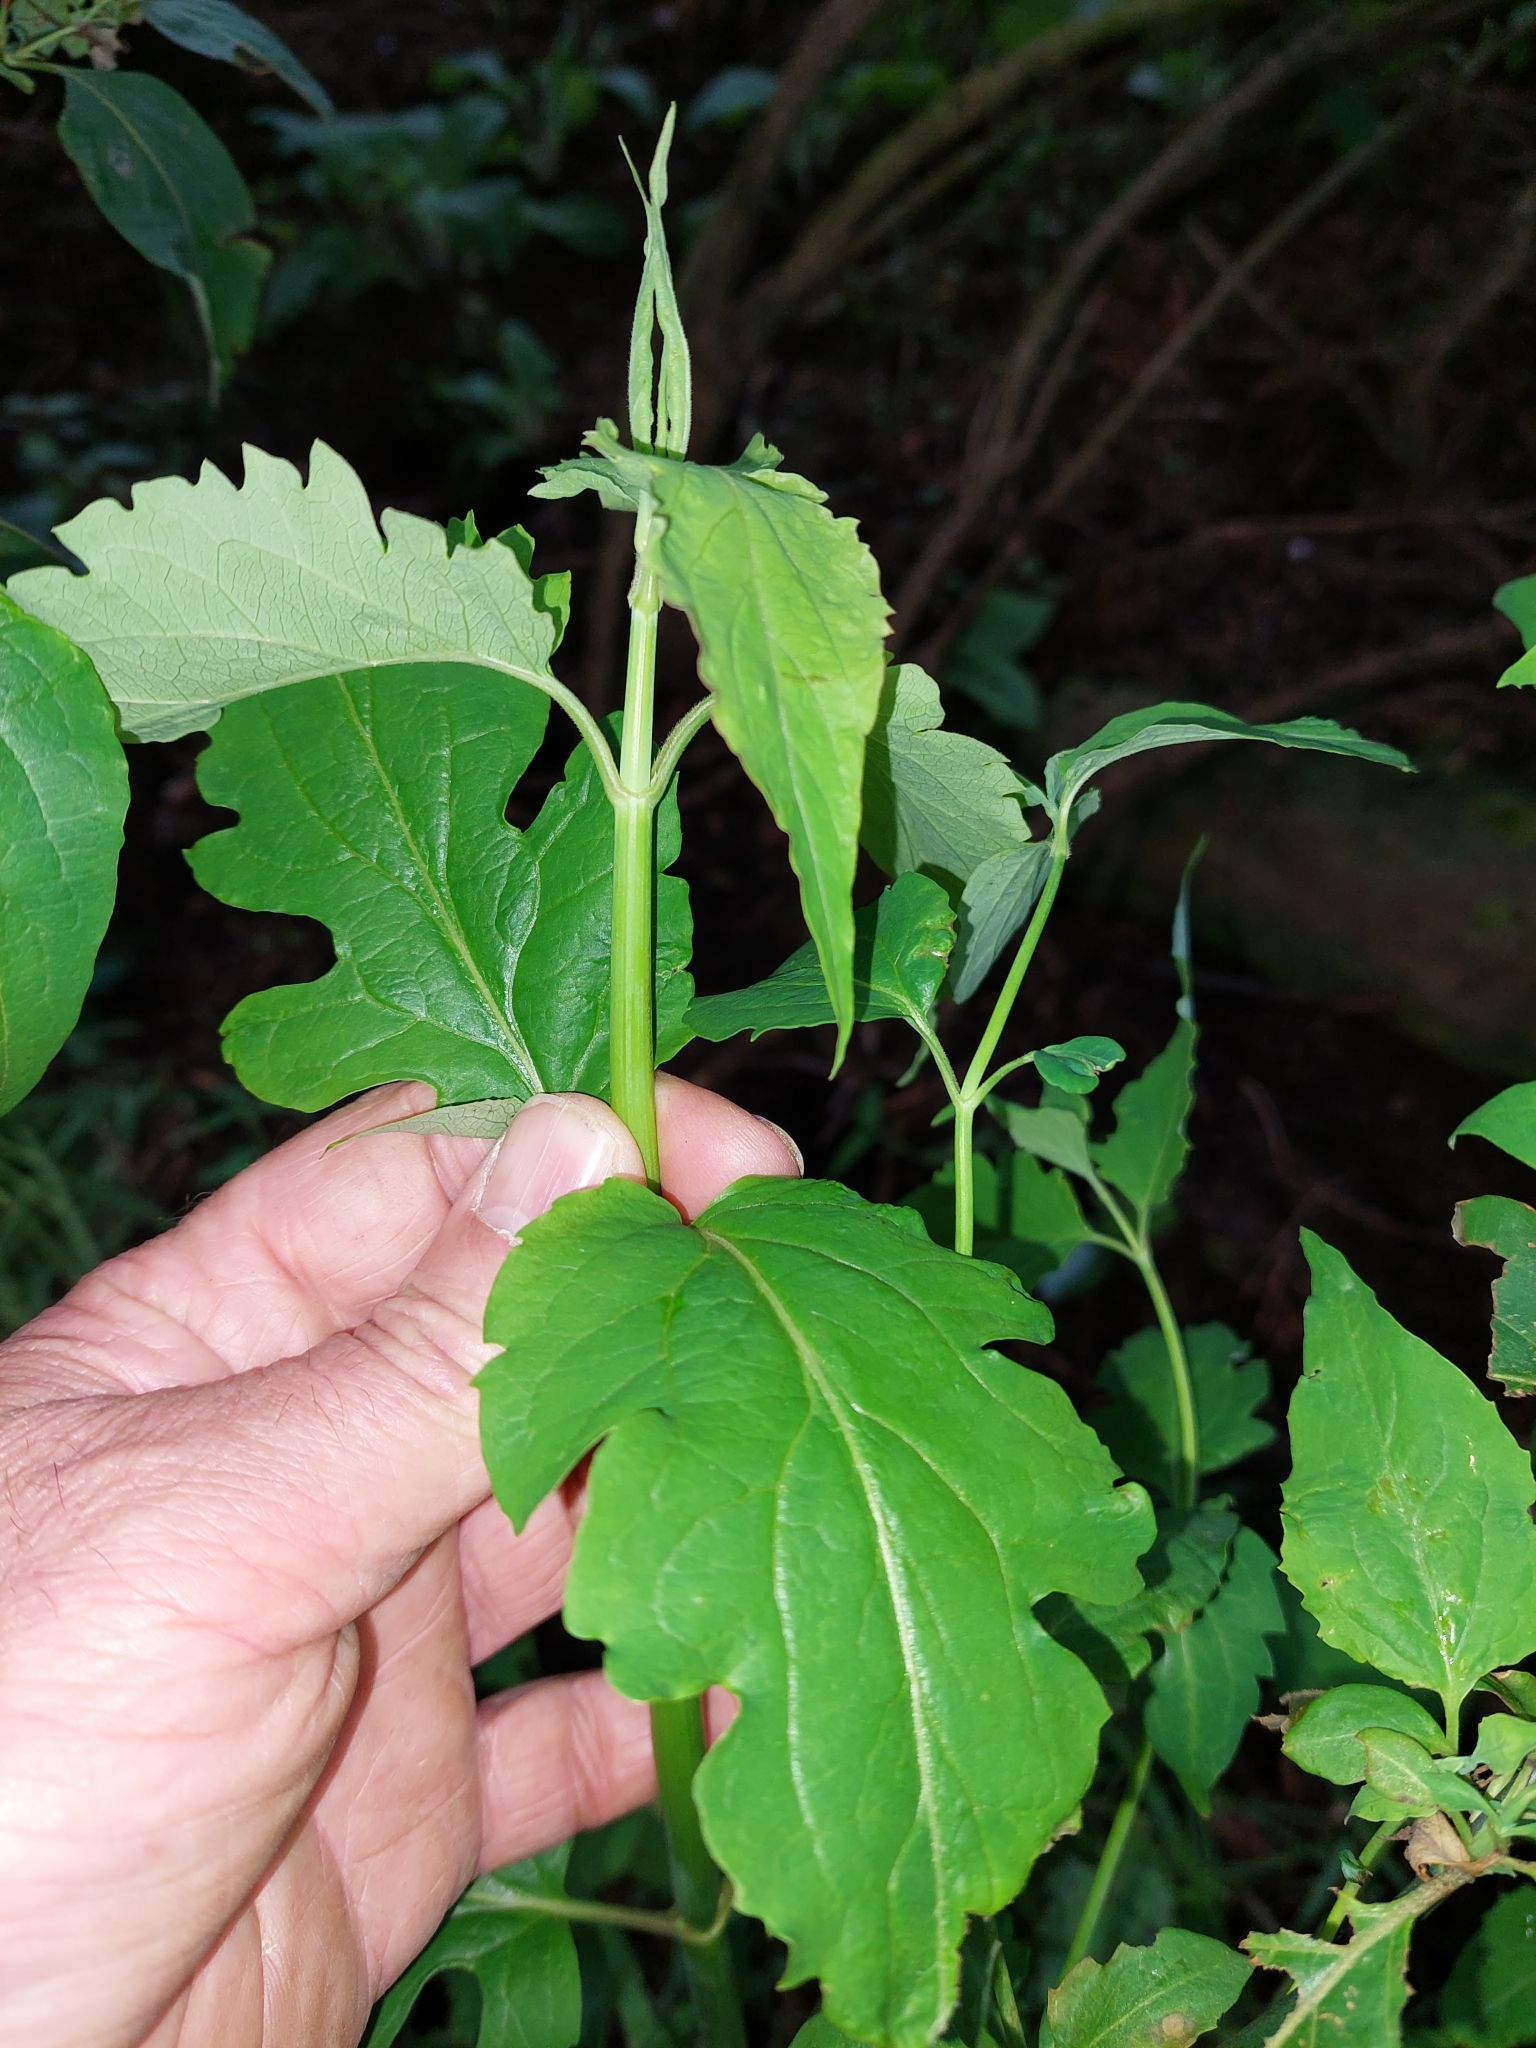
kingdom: Plantae
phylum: Tracheophyta
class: Magnoliopsida
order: Dipsacales
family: Caprifoliaceae
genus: Leycesteria
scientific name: Leycesteria formosa
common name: Himalayan honeysuckle
